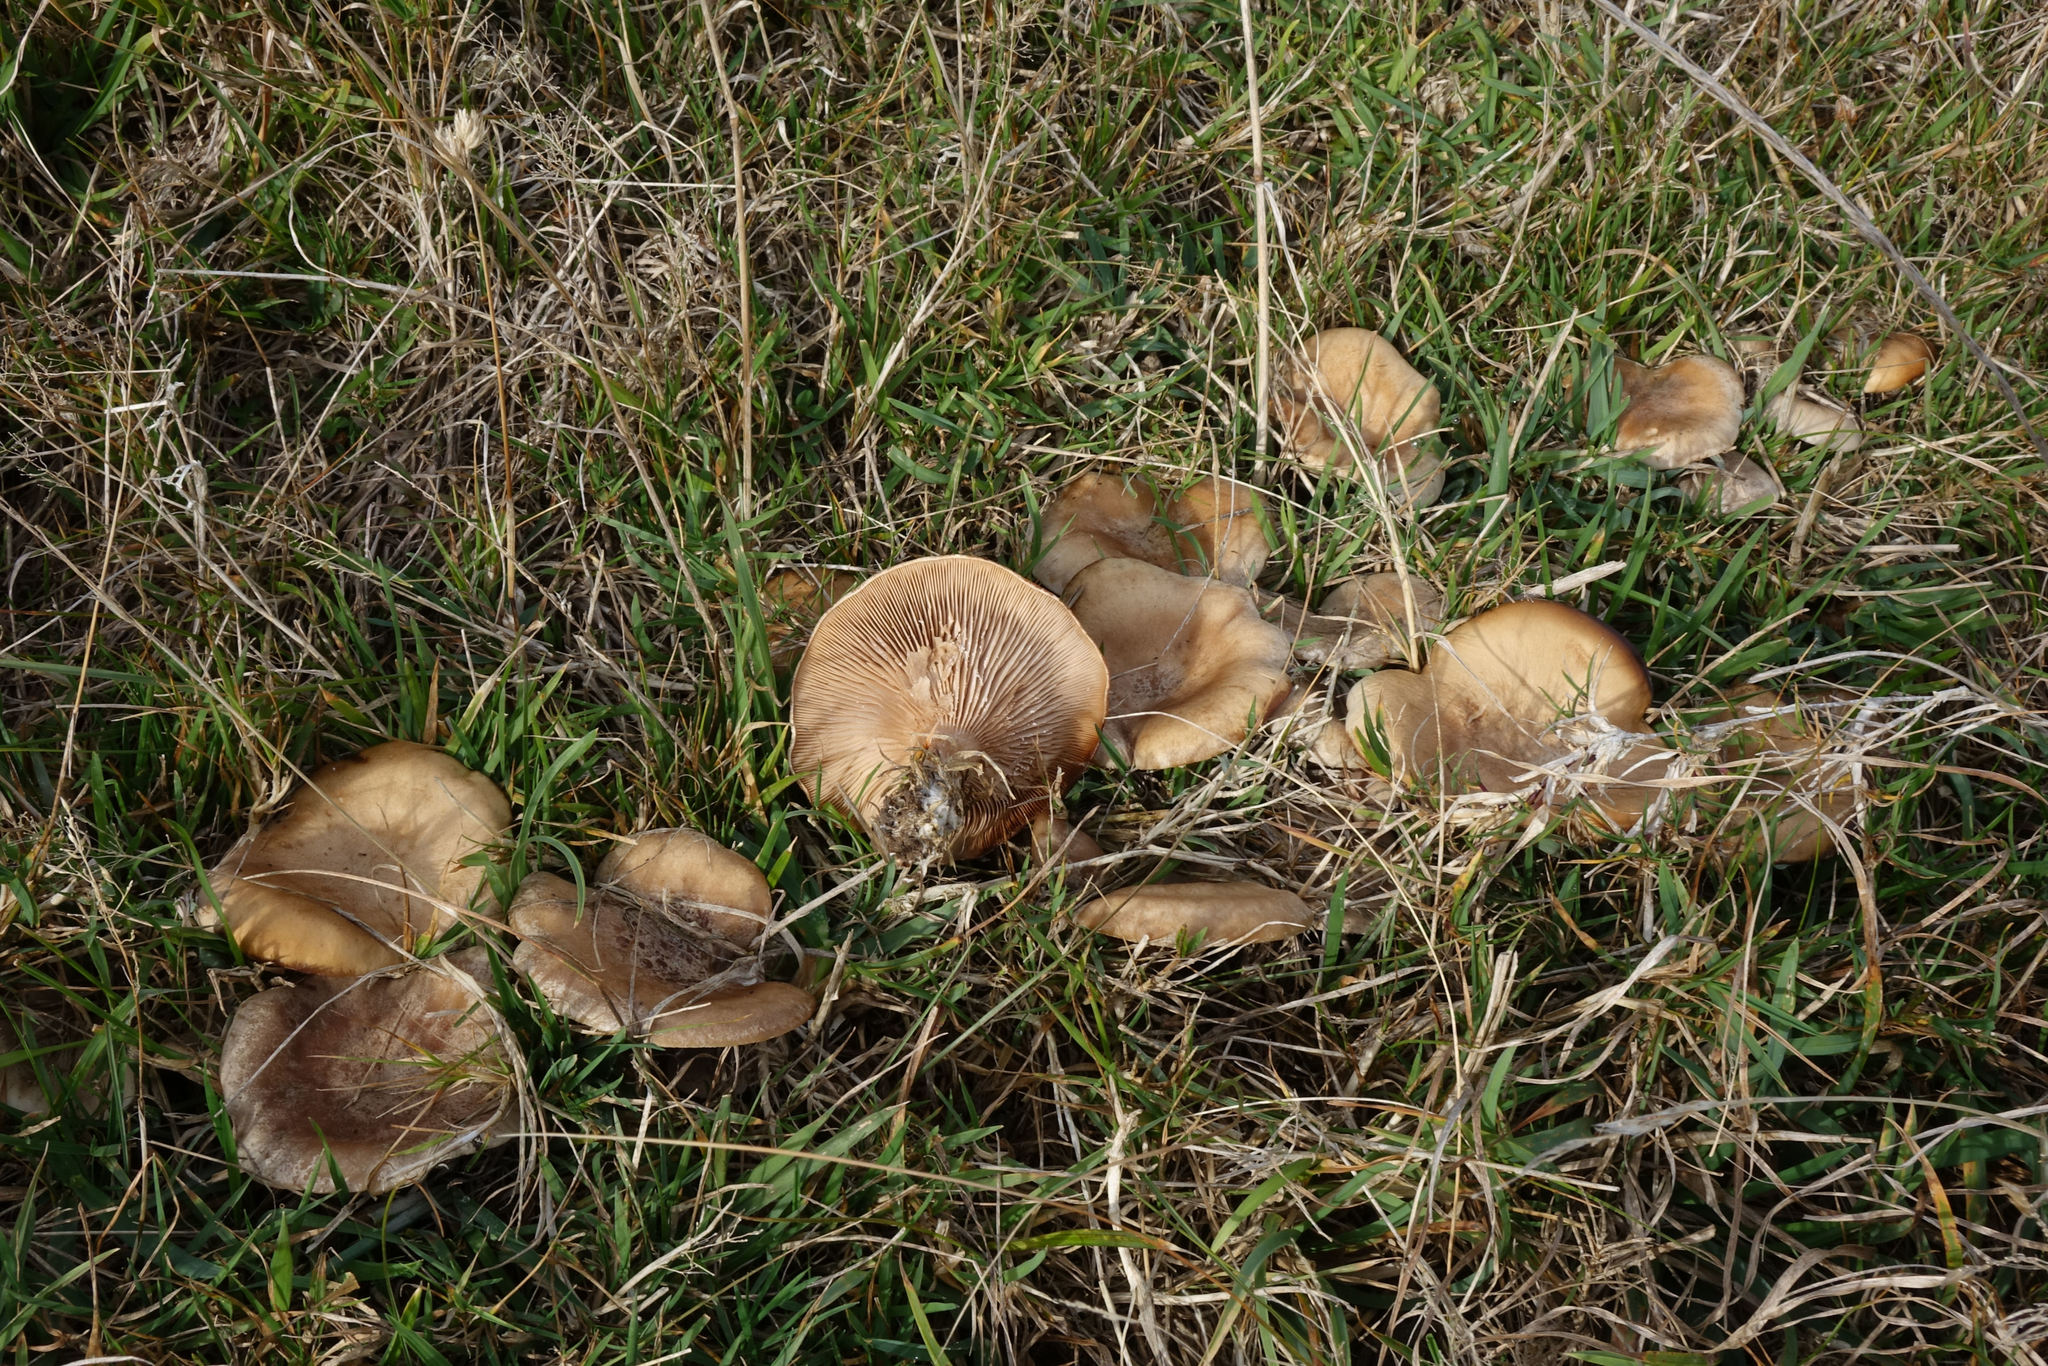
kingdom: Fungi
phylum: Basidiomycota
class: Agaricomycetes
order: Agaricales
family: Tricholomataceae
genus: Lepista
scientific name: Lepista luscina
